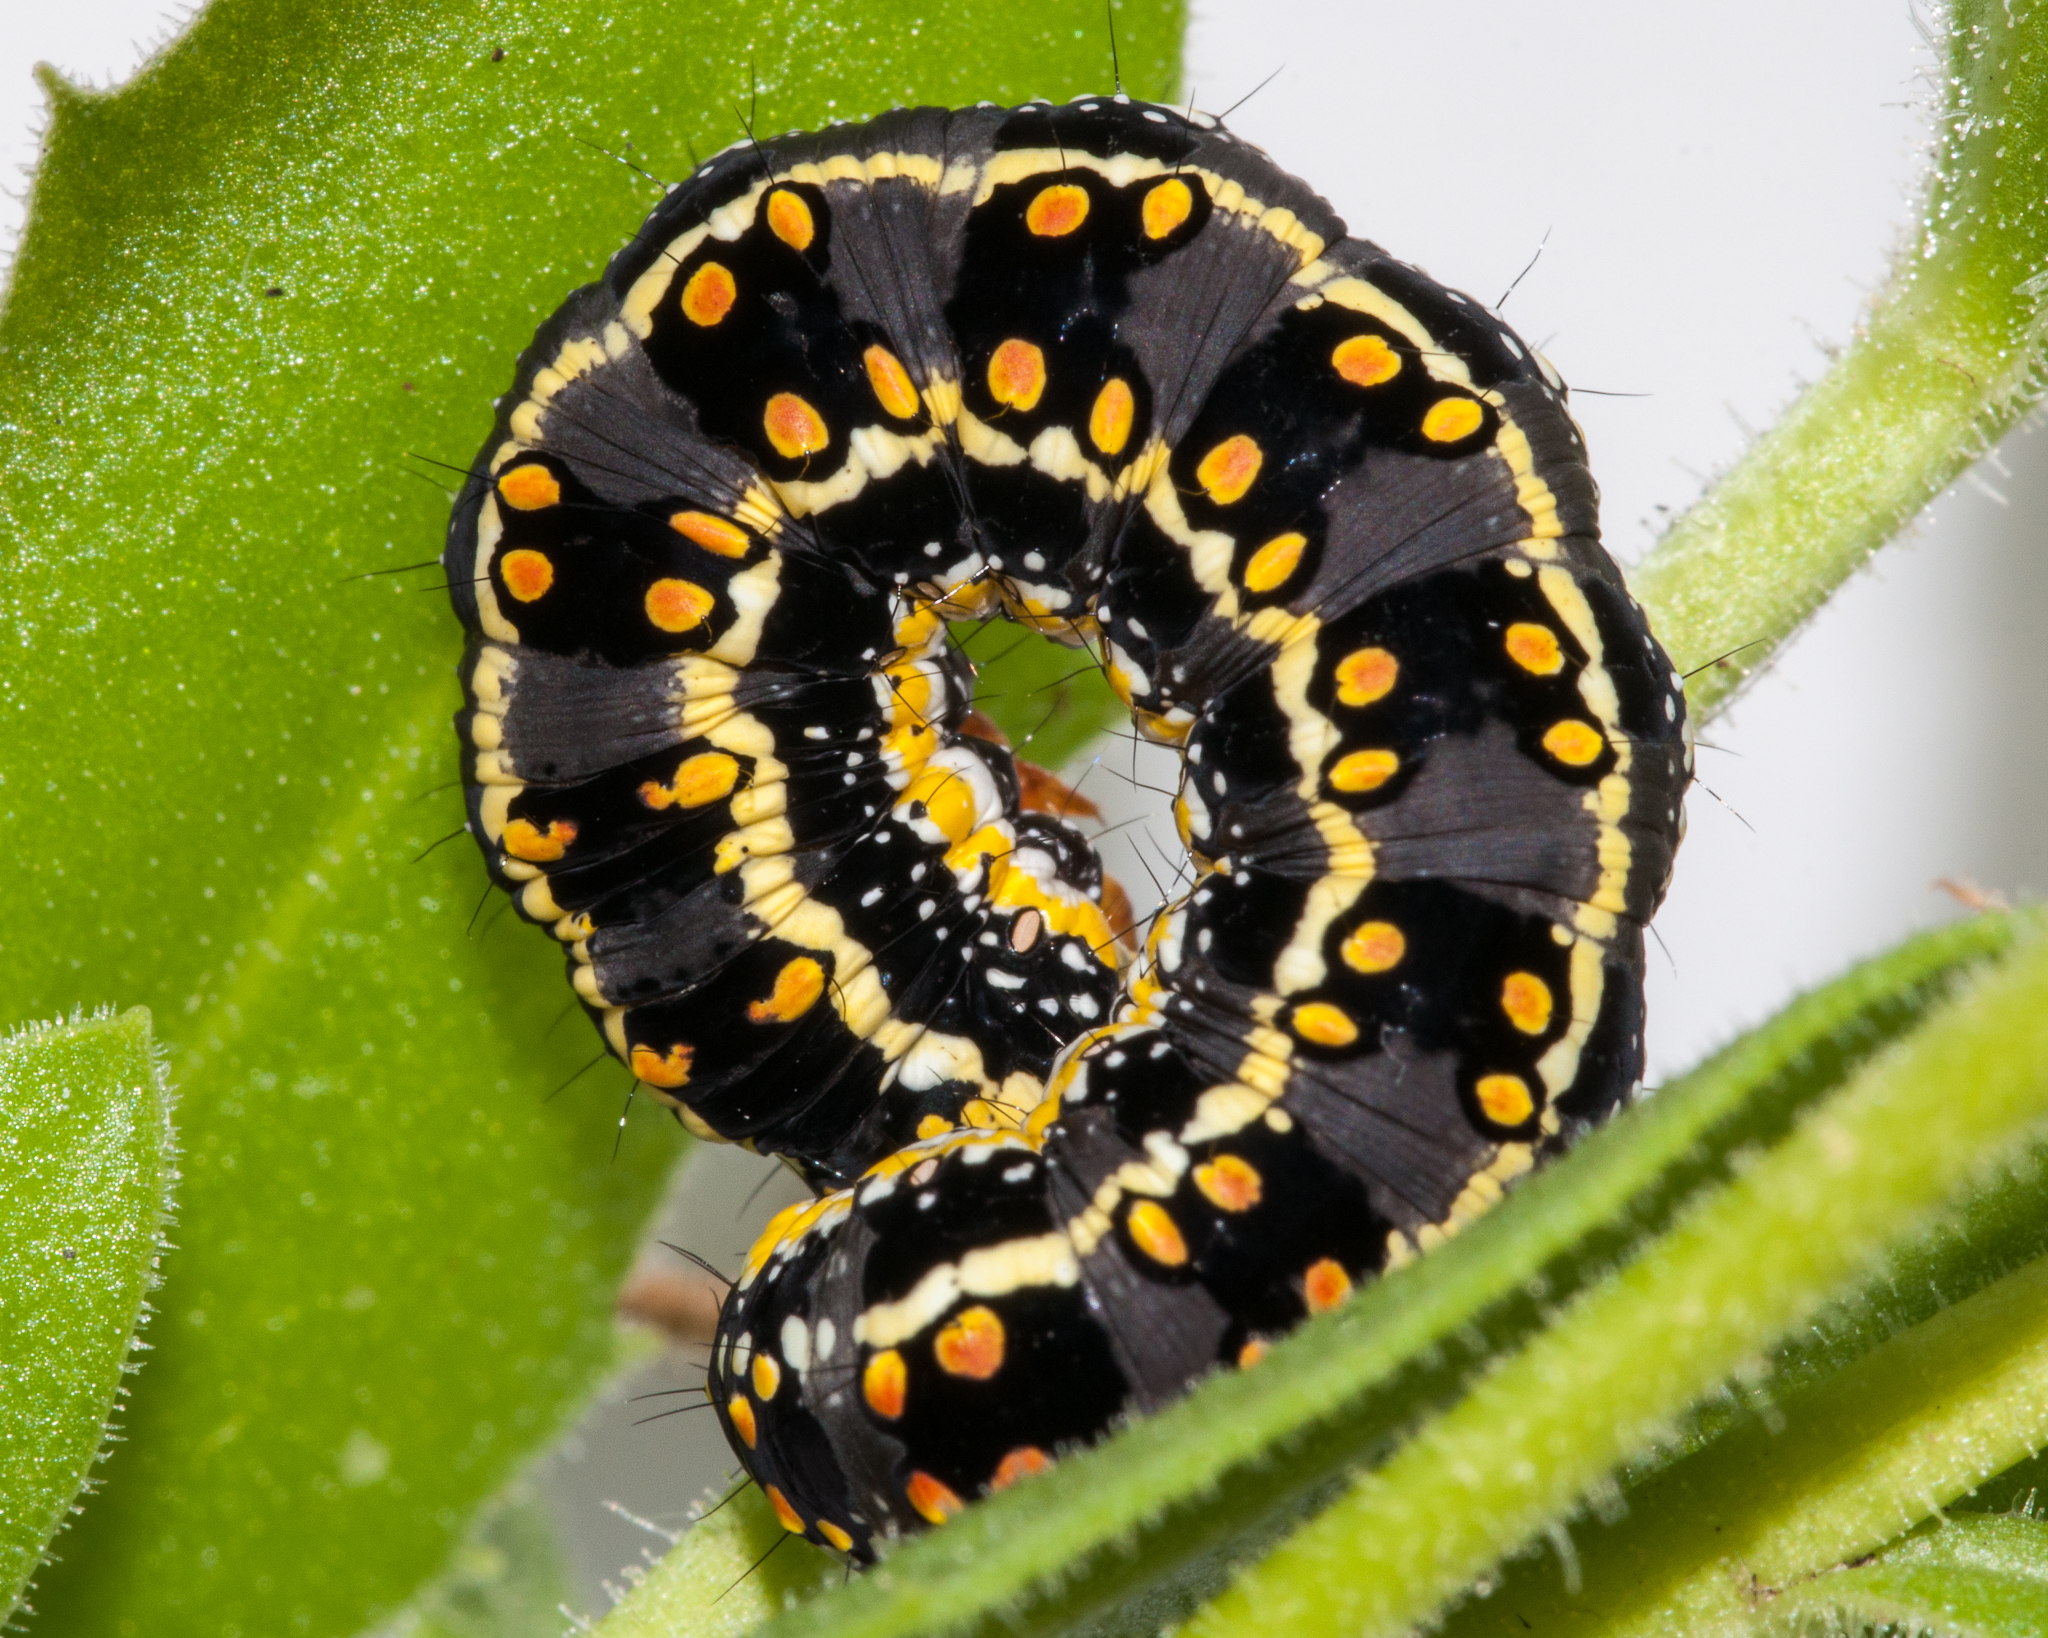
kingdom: Animalia
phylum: Arthropoda
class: Insecta
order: Lepidoptera
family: Noctuidae
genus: Cucullia
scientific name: Cucullia inaequalis
